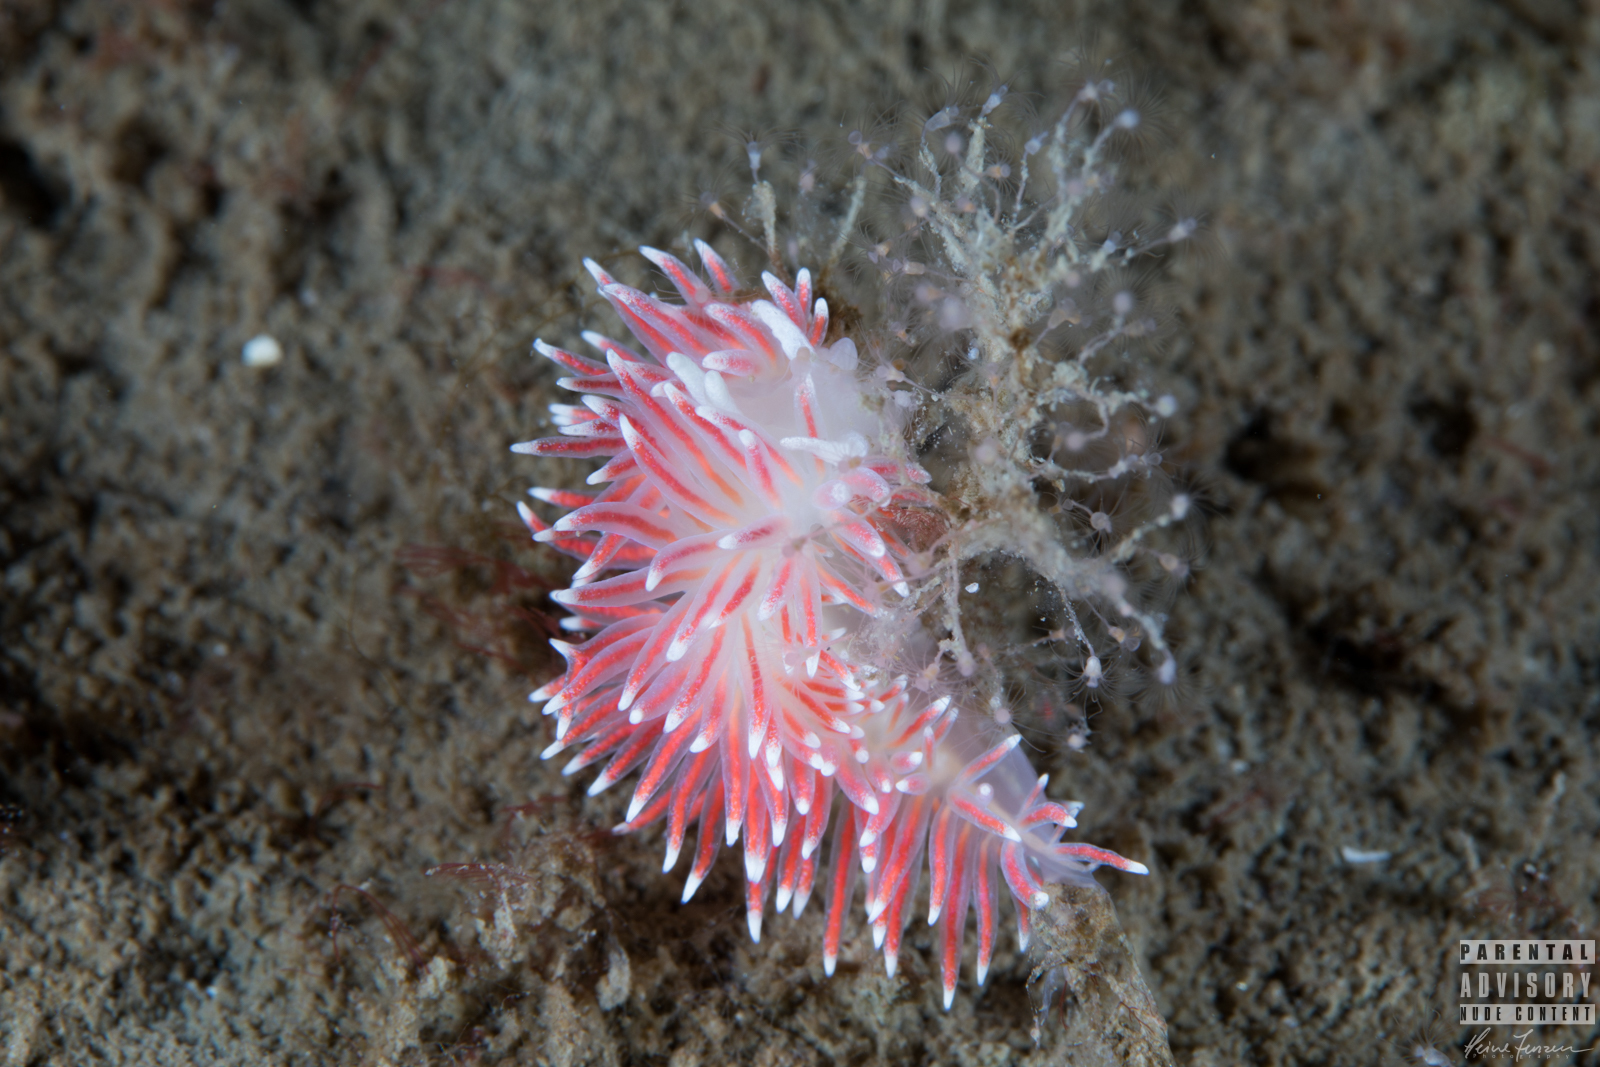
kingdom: Animalia
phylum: Mollusca
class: Gastropoda
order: Nudibranchia
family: Flabellinidae
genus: Carronella
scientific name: Carronella pellucida
